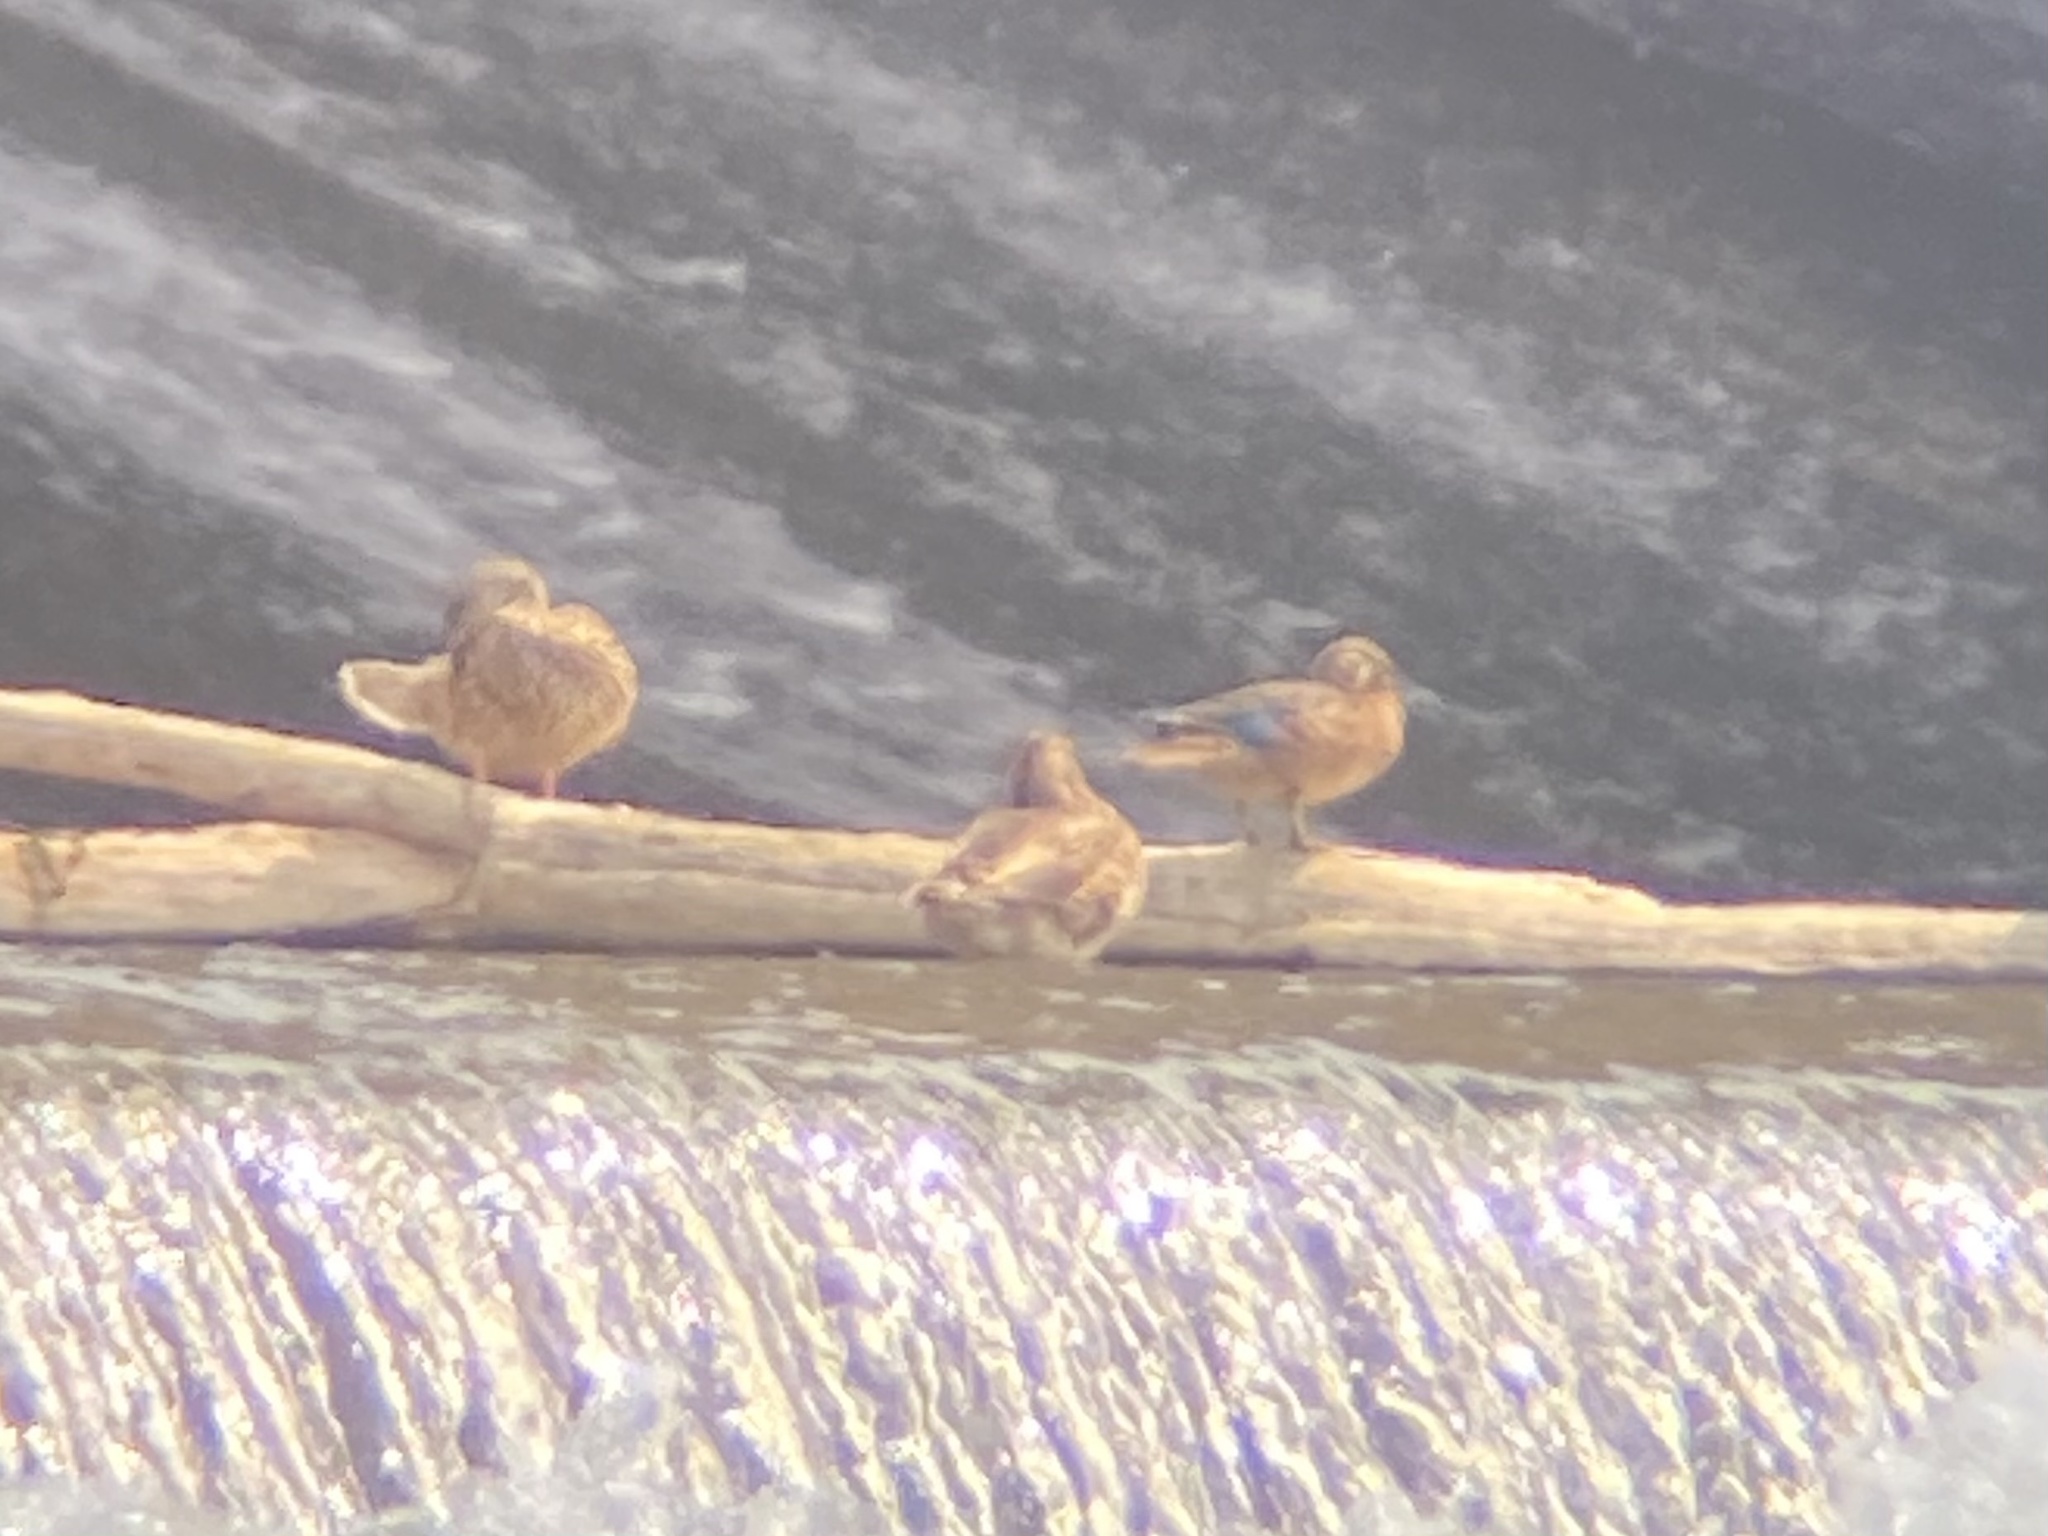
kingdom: Animalia
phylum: Chordata
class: Aves
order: Anseriformes
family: Anatidae
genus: Anas
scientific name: Anas platyrhynchos
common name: Mallard
